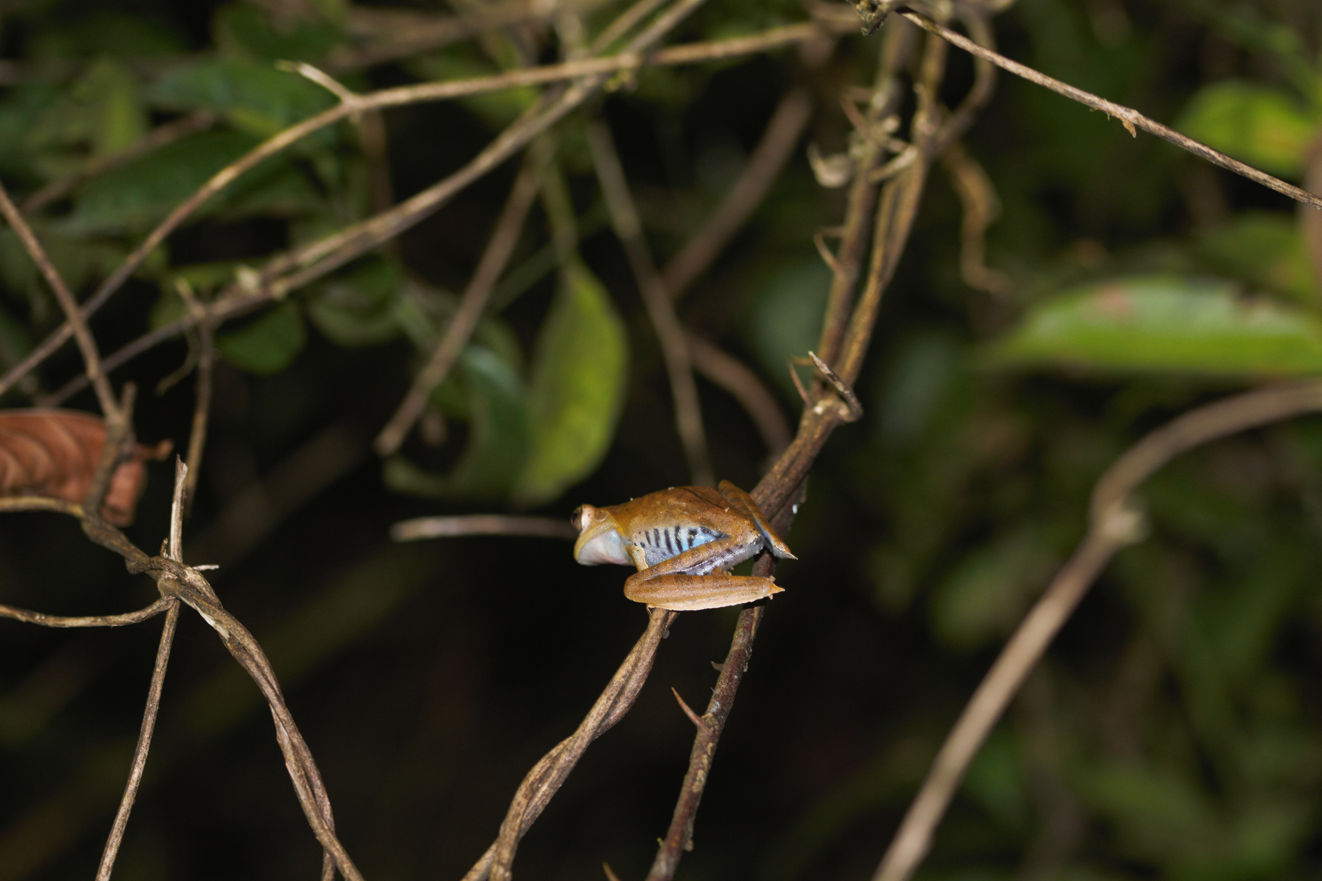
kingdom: Animalia
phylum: Chordata
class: Amphibia
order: Anura
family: Hylidae
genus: Boana
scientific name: Boana calcarata
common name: Blue-flanked treefrog
